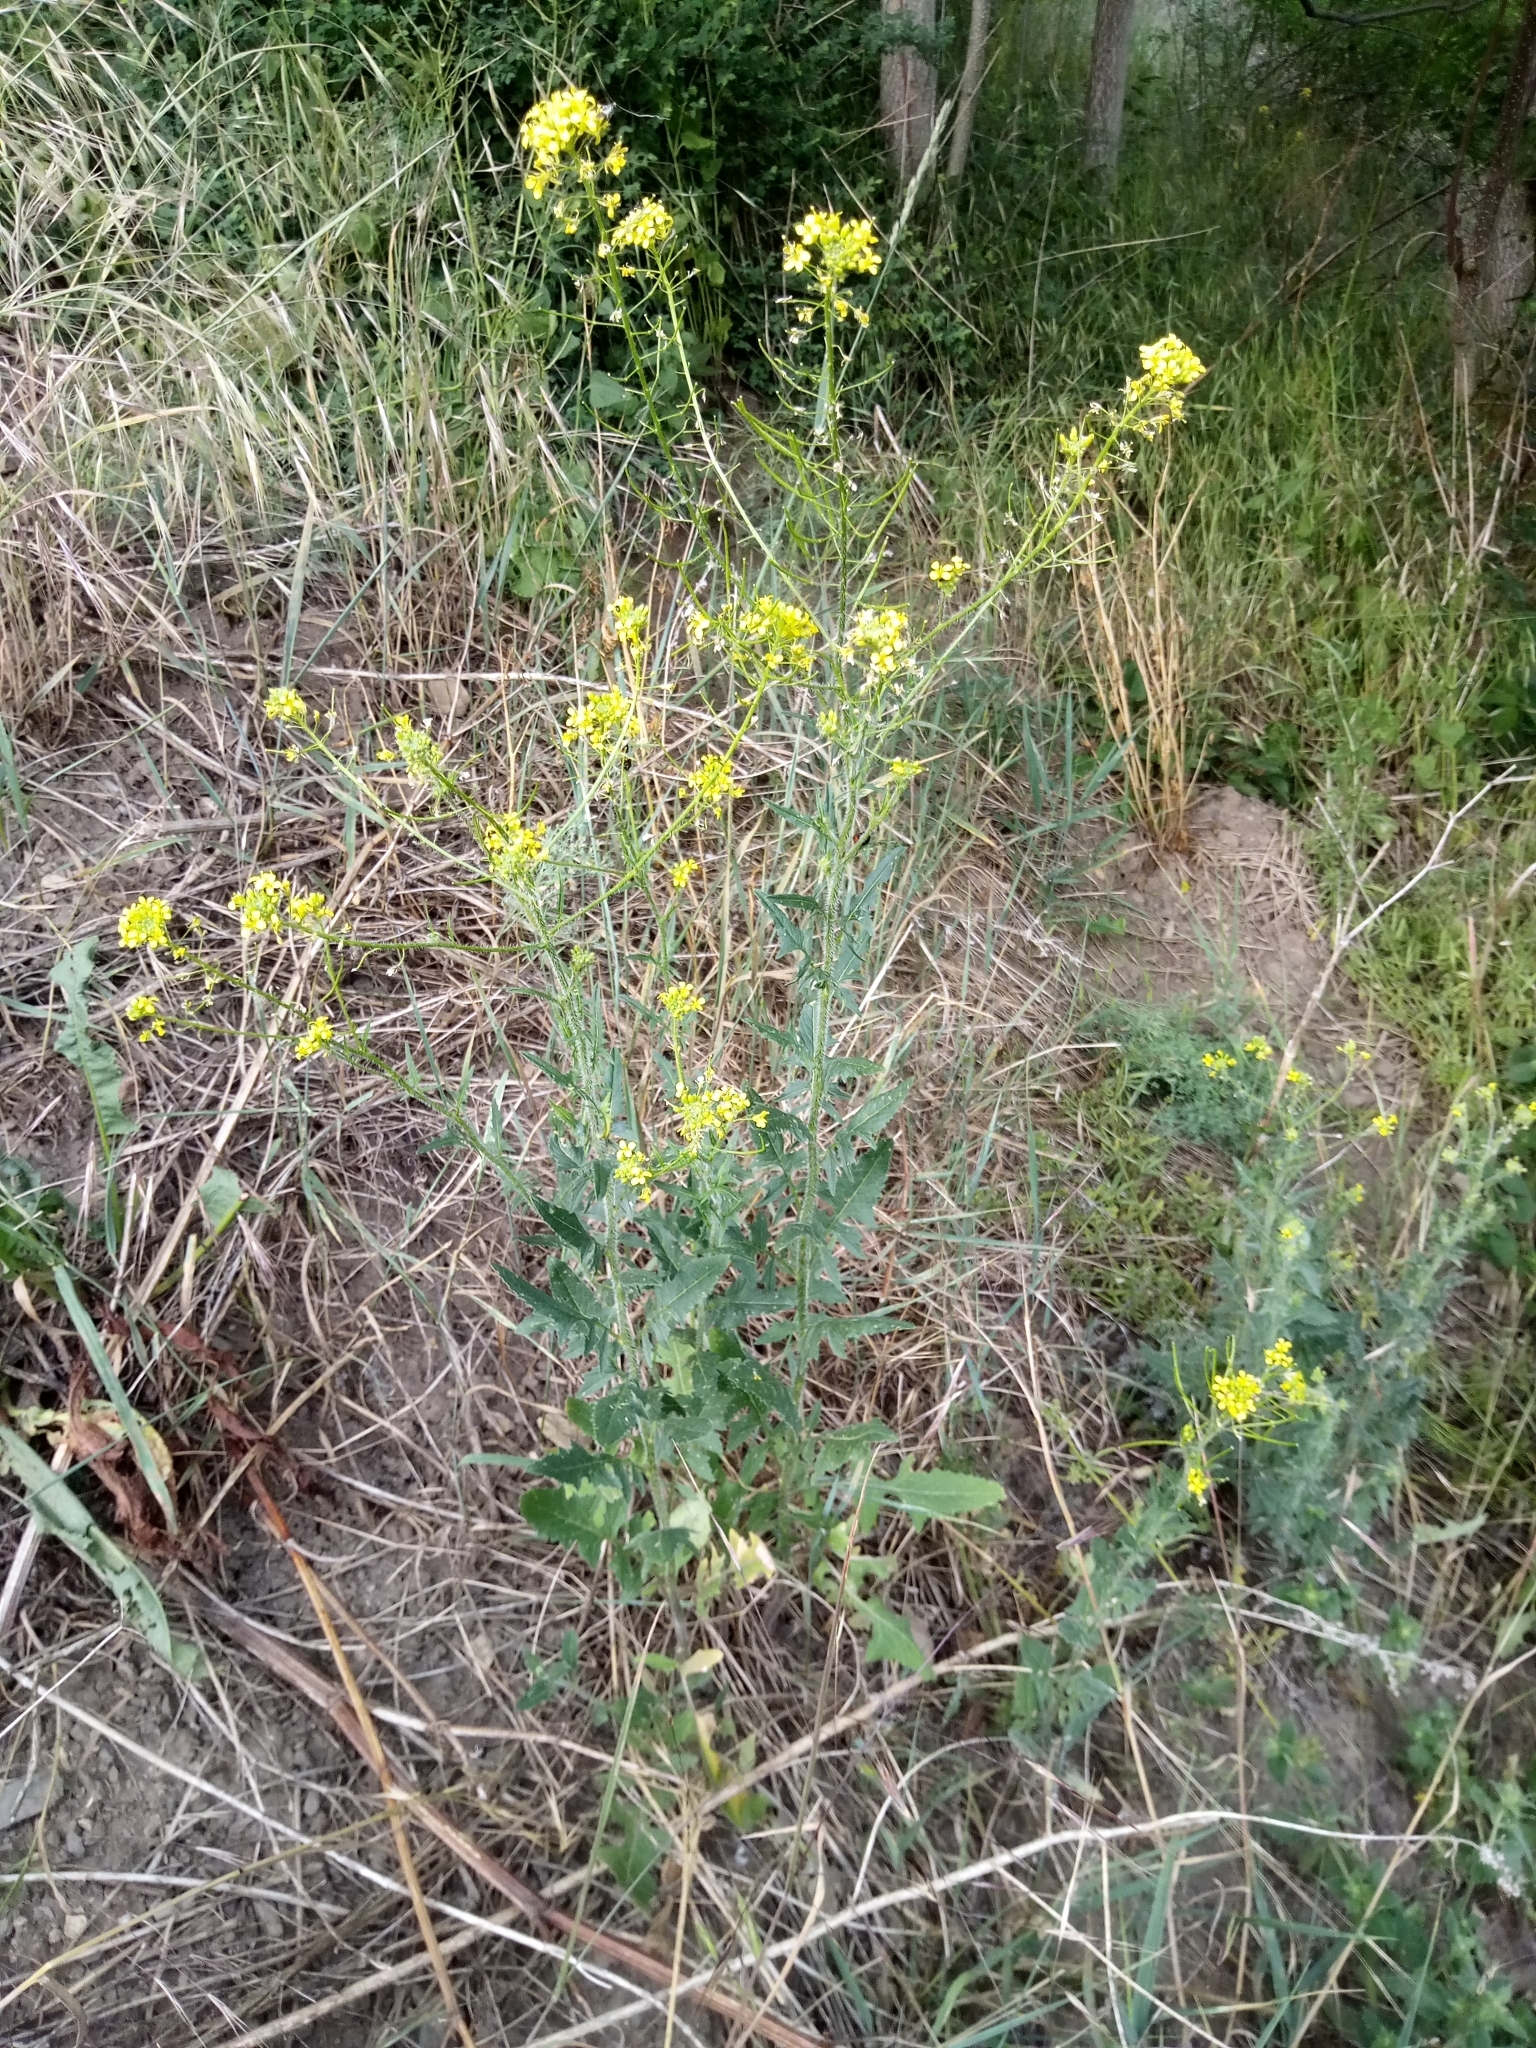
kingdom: Plantae
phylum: Tracheophyta
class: Magnoliopsida
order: Brassicales
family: Brassicaceae
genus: Sisymbrium
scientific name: Sisymbrium loeselii
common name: False london-rocket
